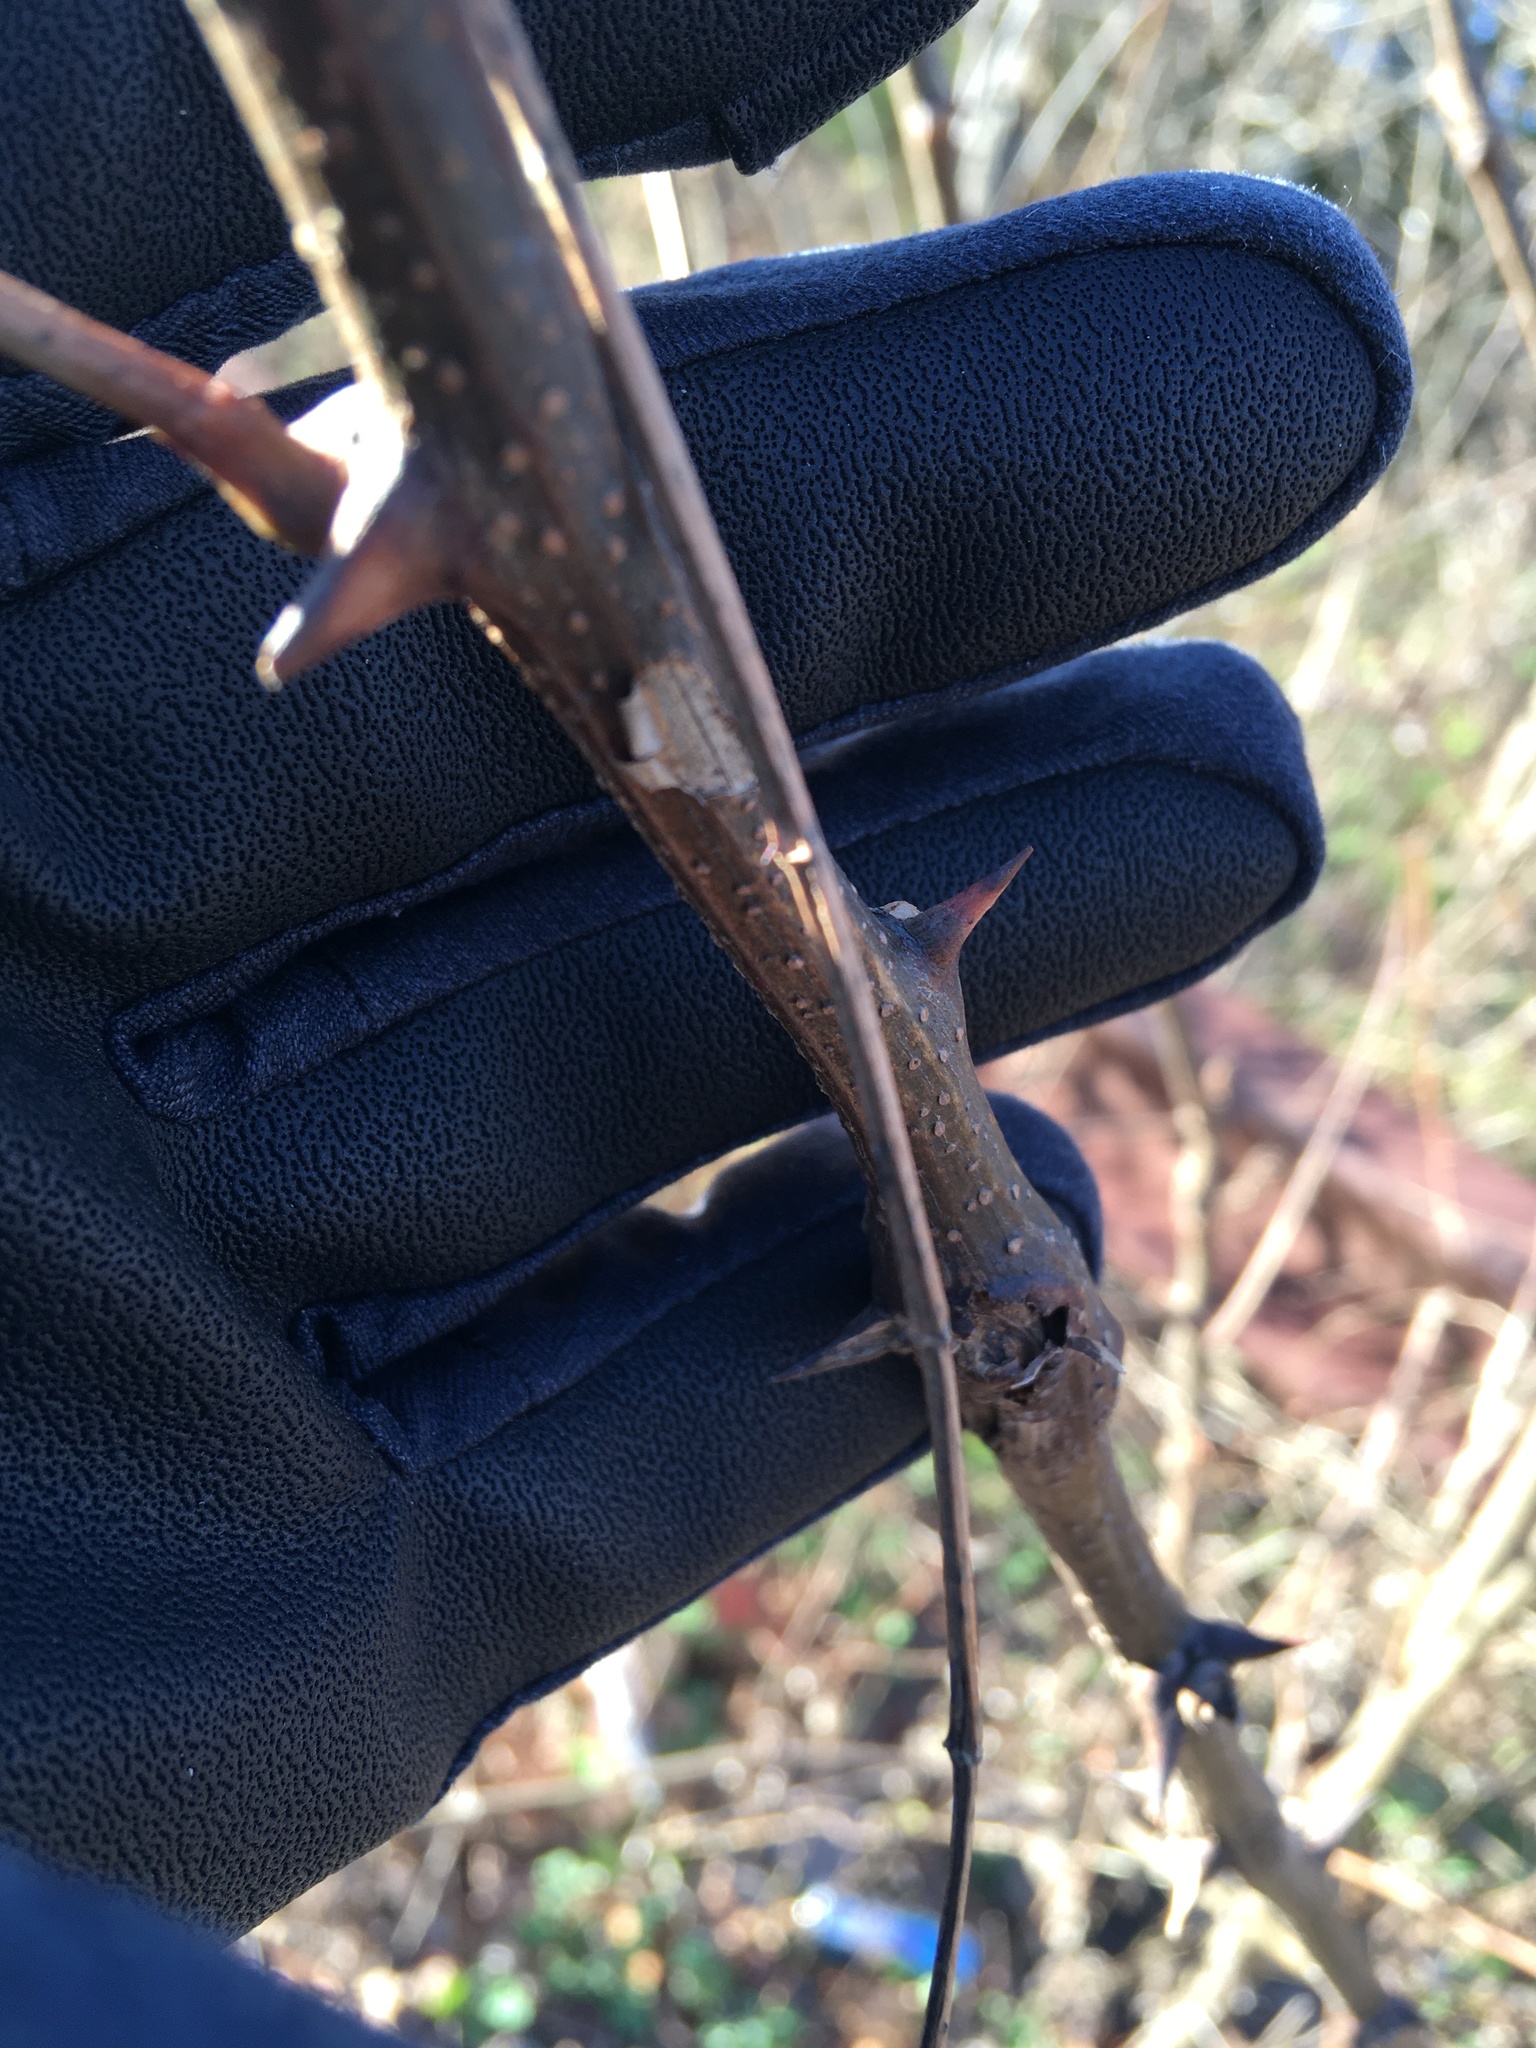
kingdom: Plantae
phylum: Tracheophyta
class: Magnoliopsida
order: Fabales
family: Fabaceae
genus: Robinia
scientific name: Robinia pseudoacacia
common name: Black locust
